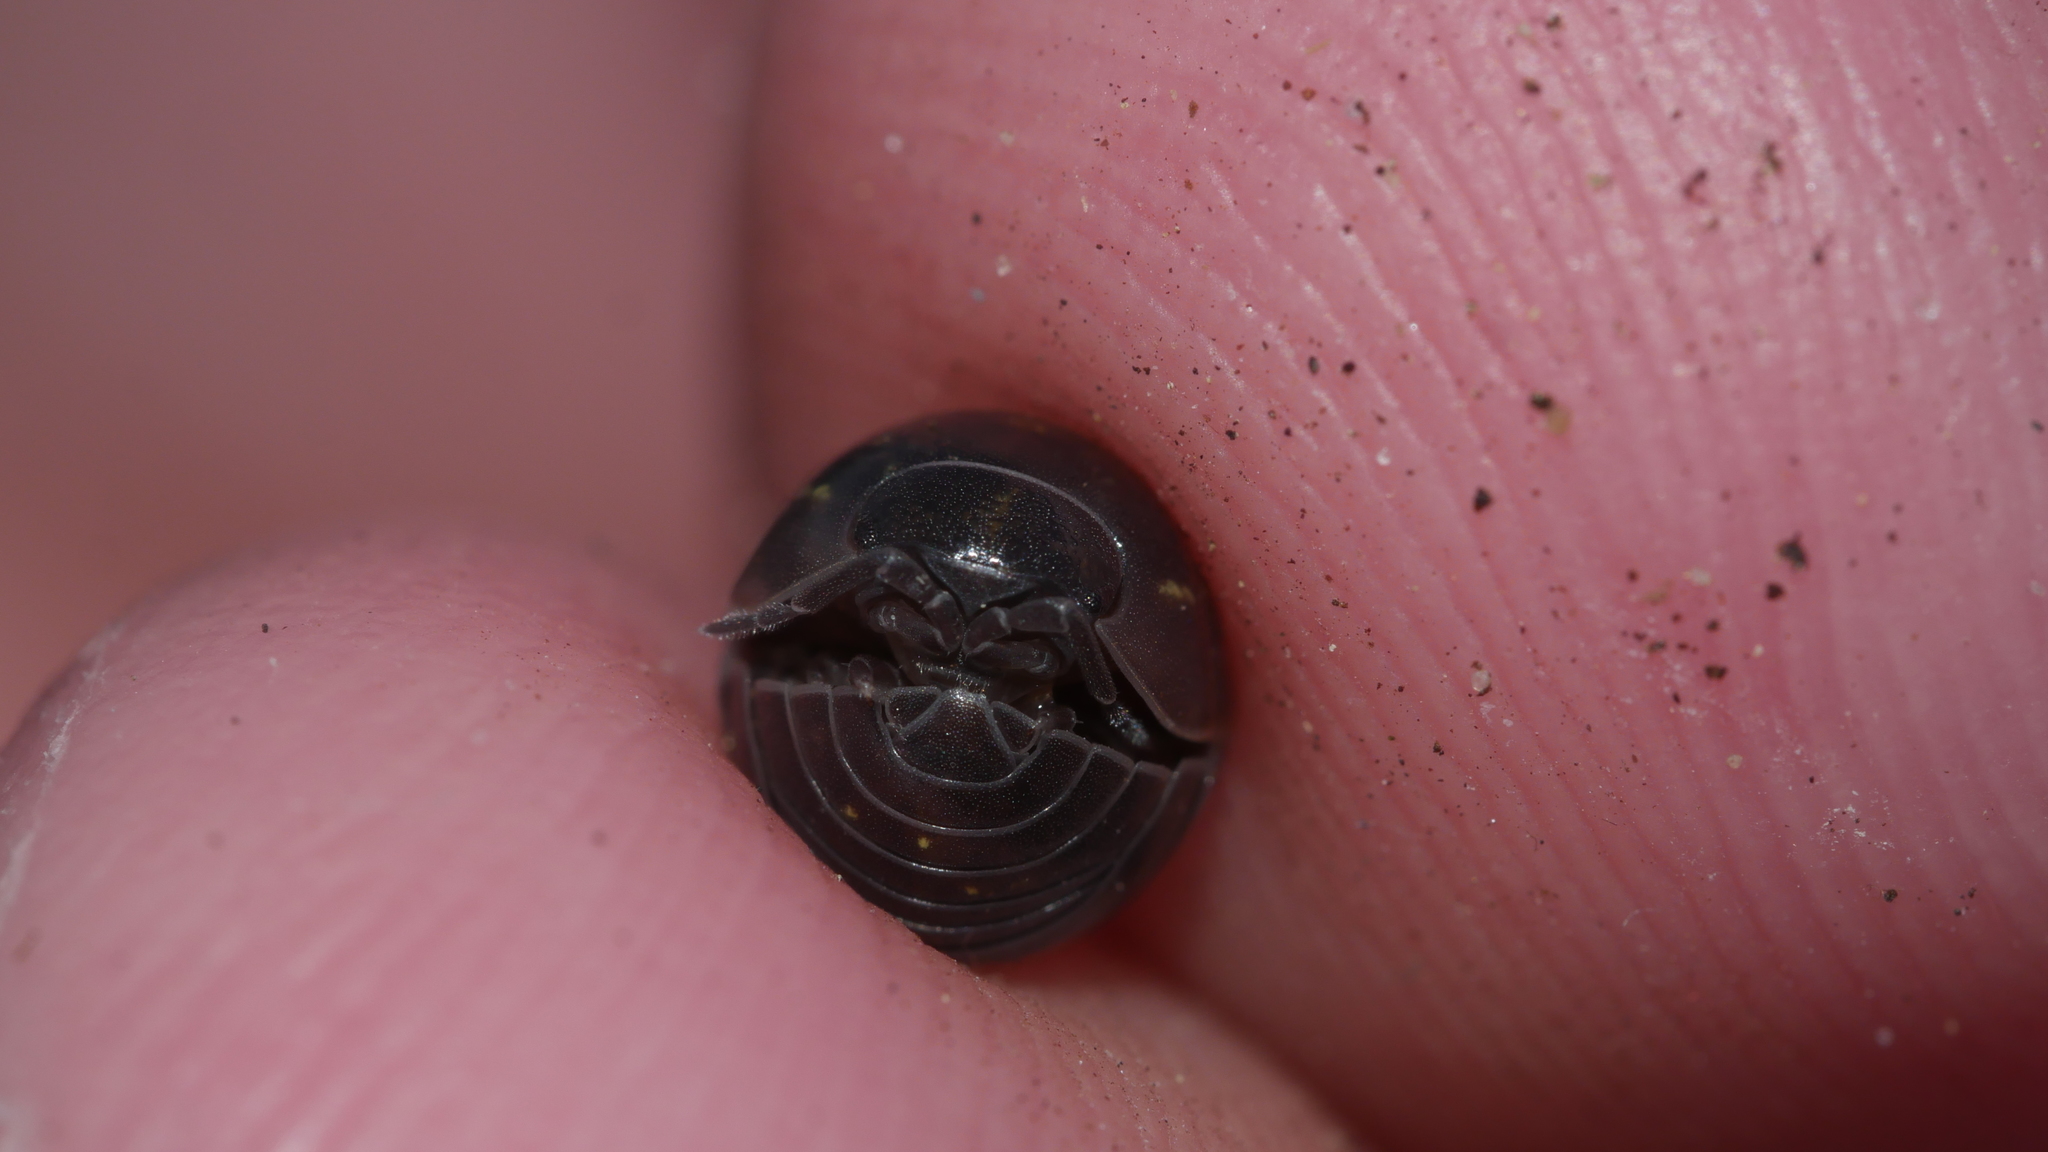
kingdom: Animalia
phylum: Arthropoda
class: Malacostraca
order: Isopoda
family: Armadillidiidae
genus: Armadillidium
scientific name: Armadillidium vulgare
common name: Common pill woodlouse
